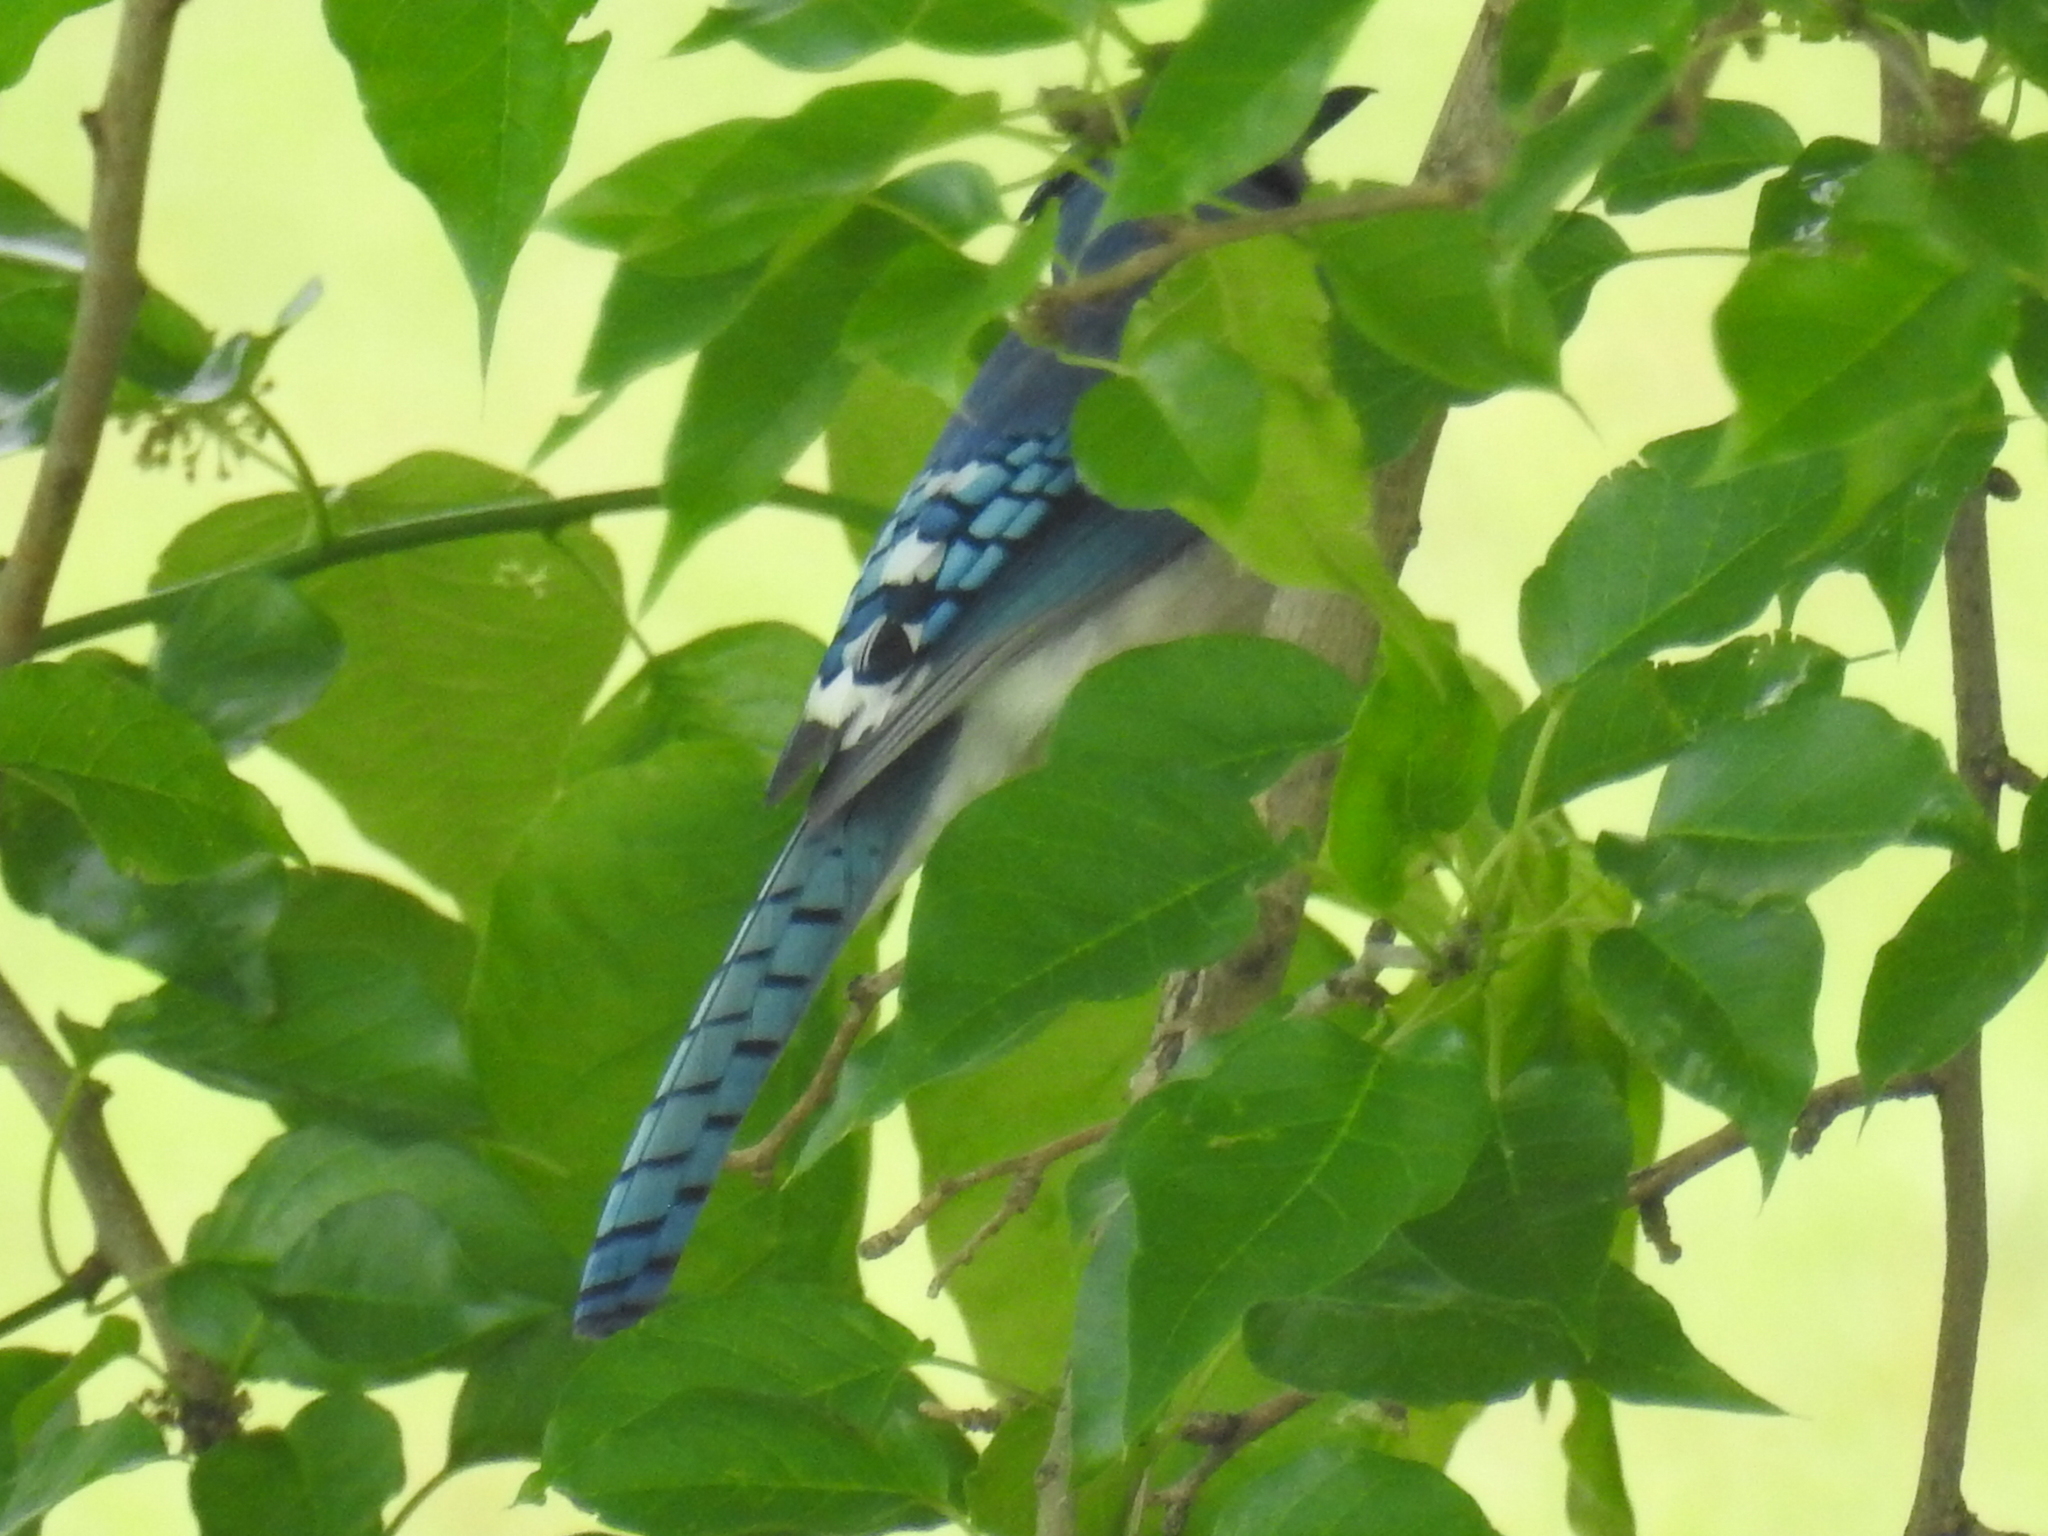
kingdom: Animalia
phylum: Chordata
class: Aves
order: Passeriformes
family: Corvidae
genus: Cyanocitta
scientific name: Cyanocitta cristata
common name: Blue jay
